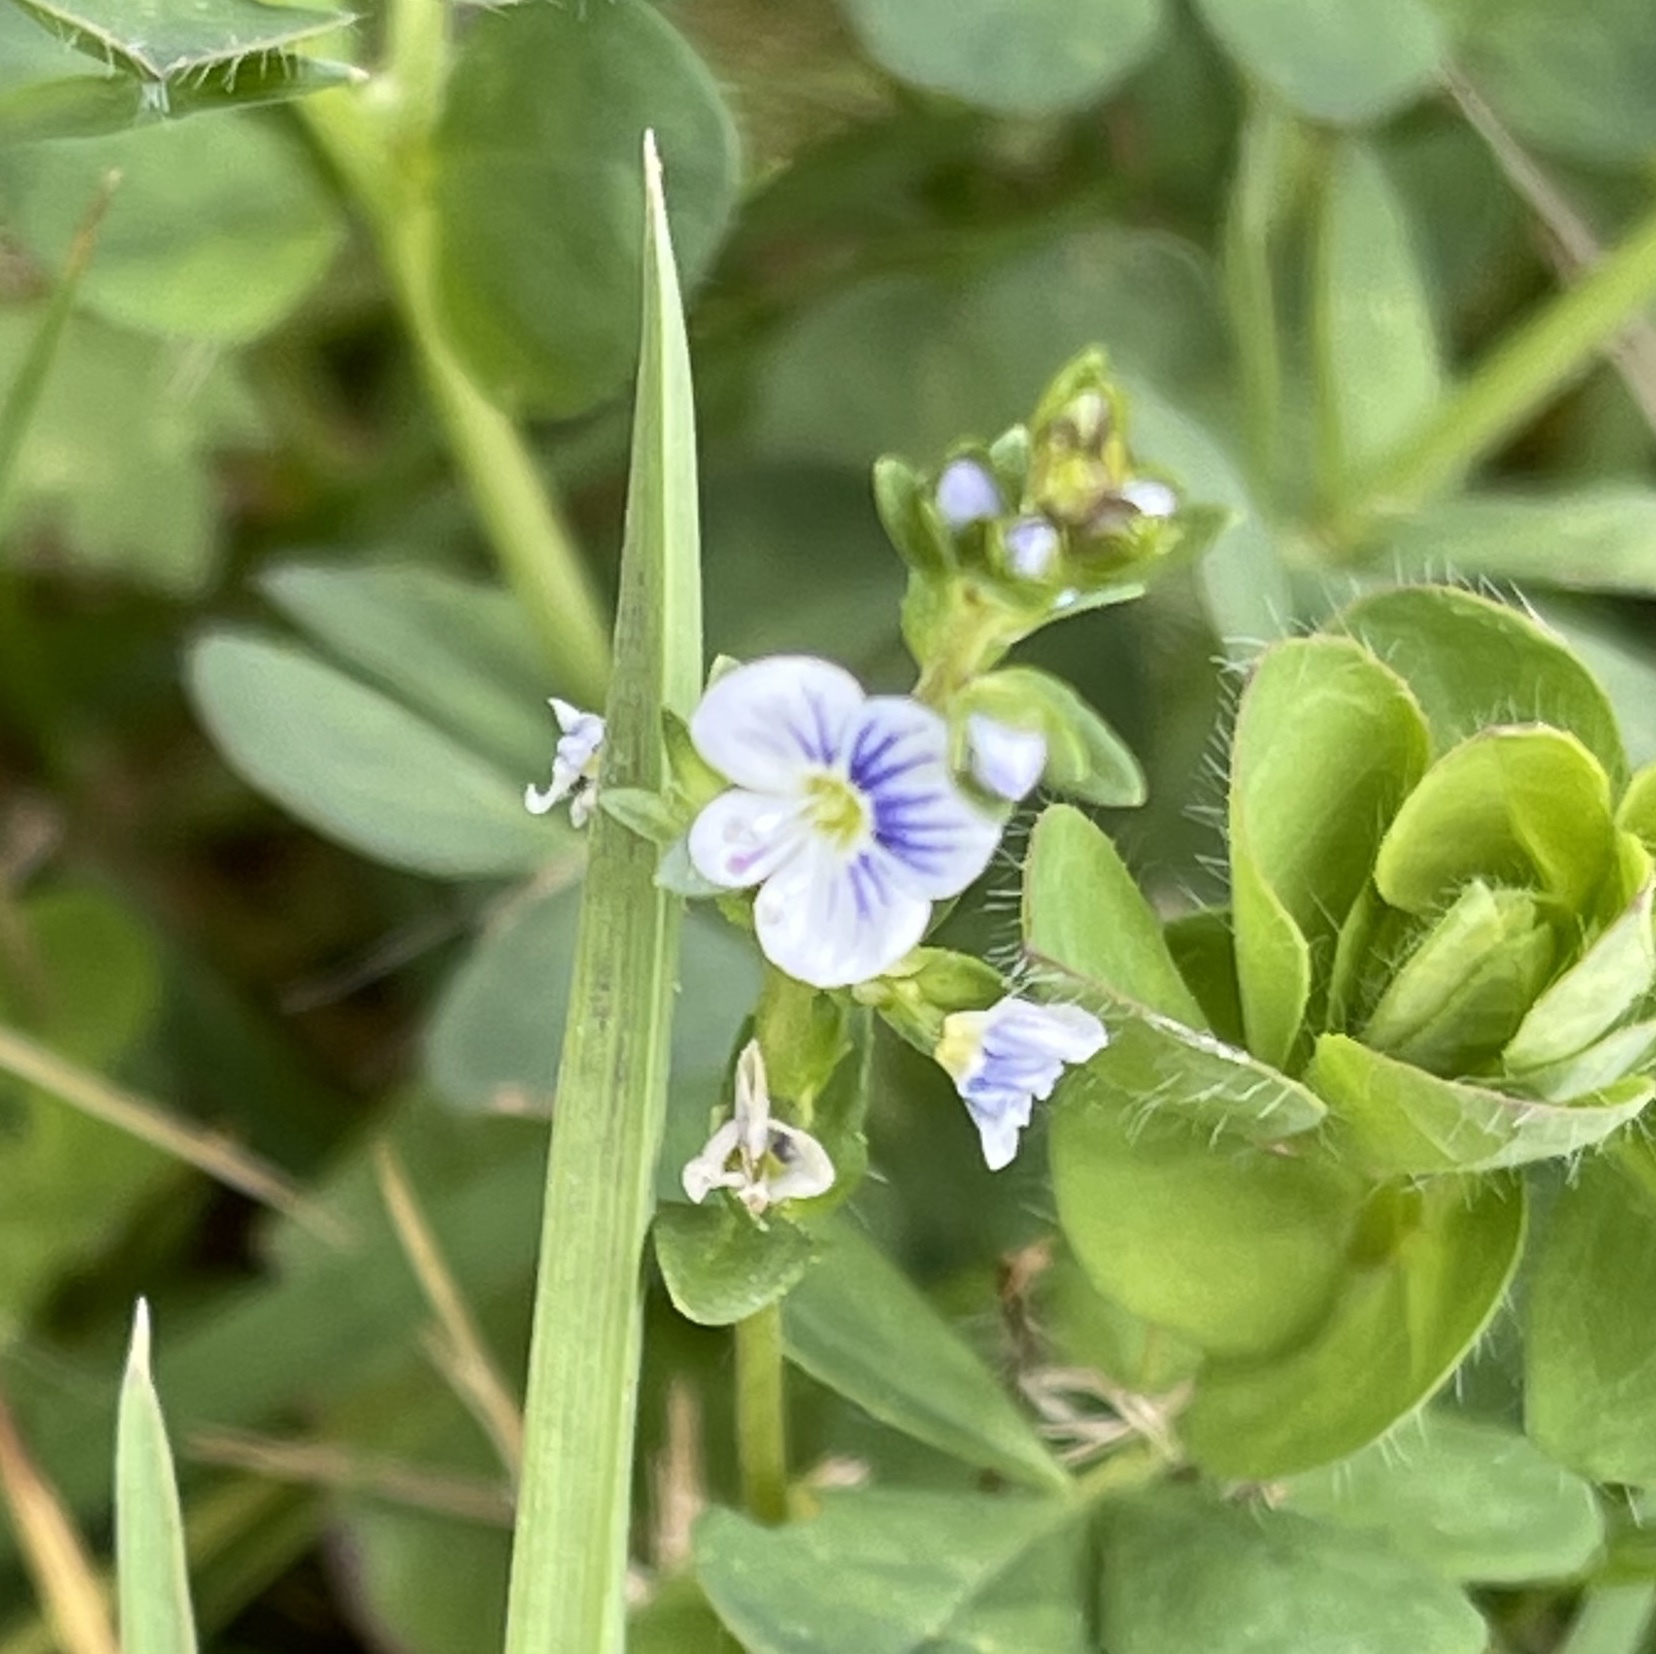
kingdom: Plantae
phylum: Tracheophyta
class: Magnoliopsida
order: Lamiales
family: Plantaginaceae
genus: Veronica
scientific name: Veronica serpyllifolia
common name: Thyme-leaved speedwell
